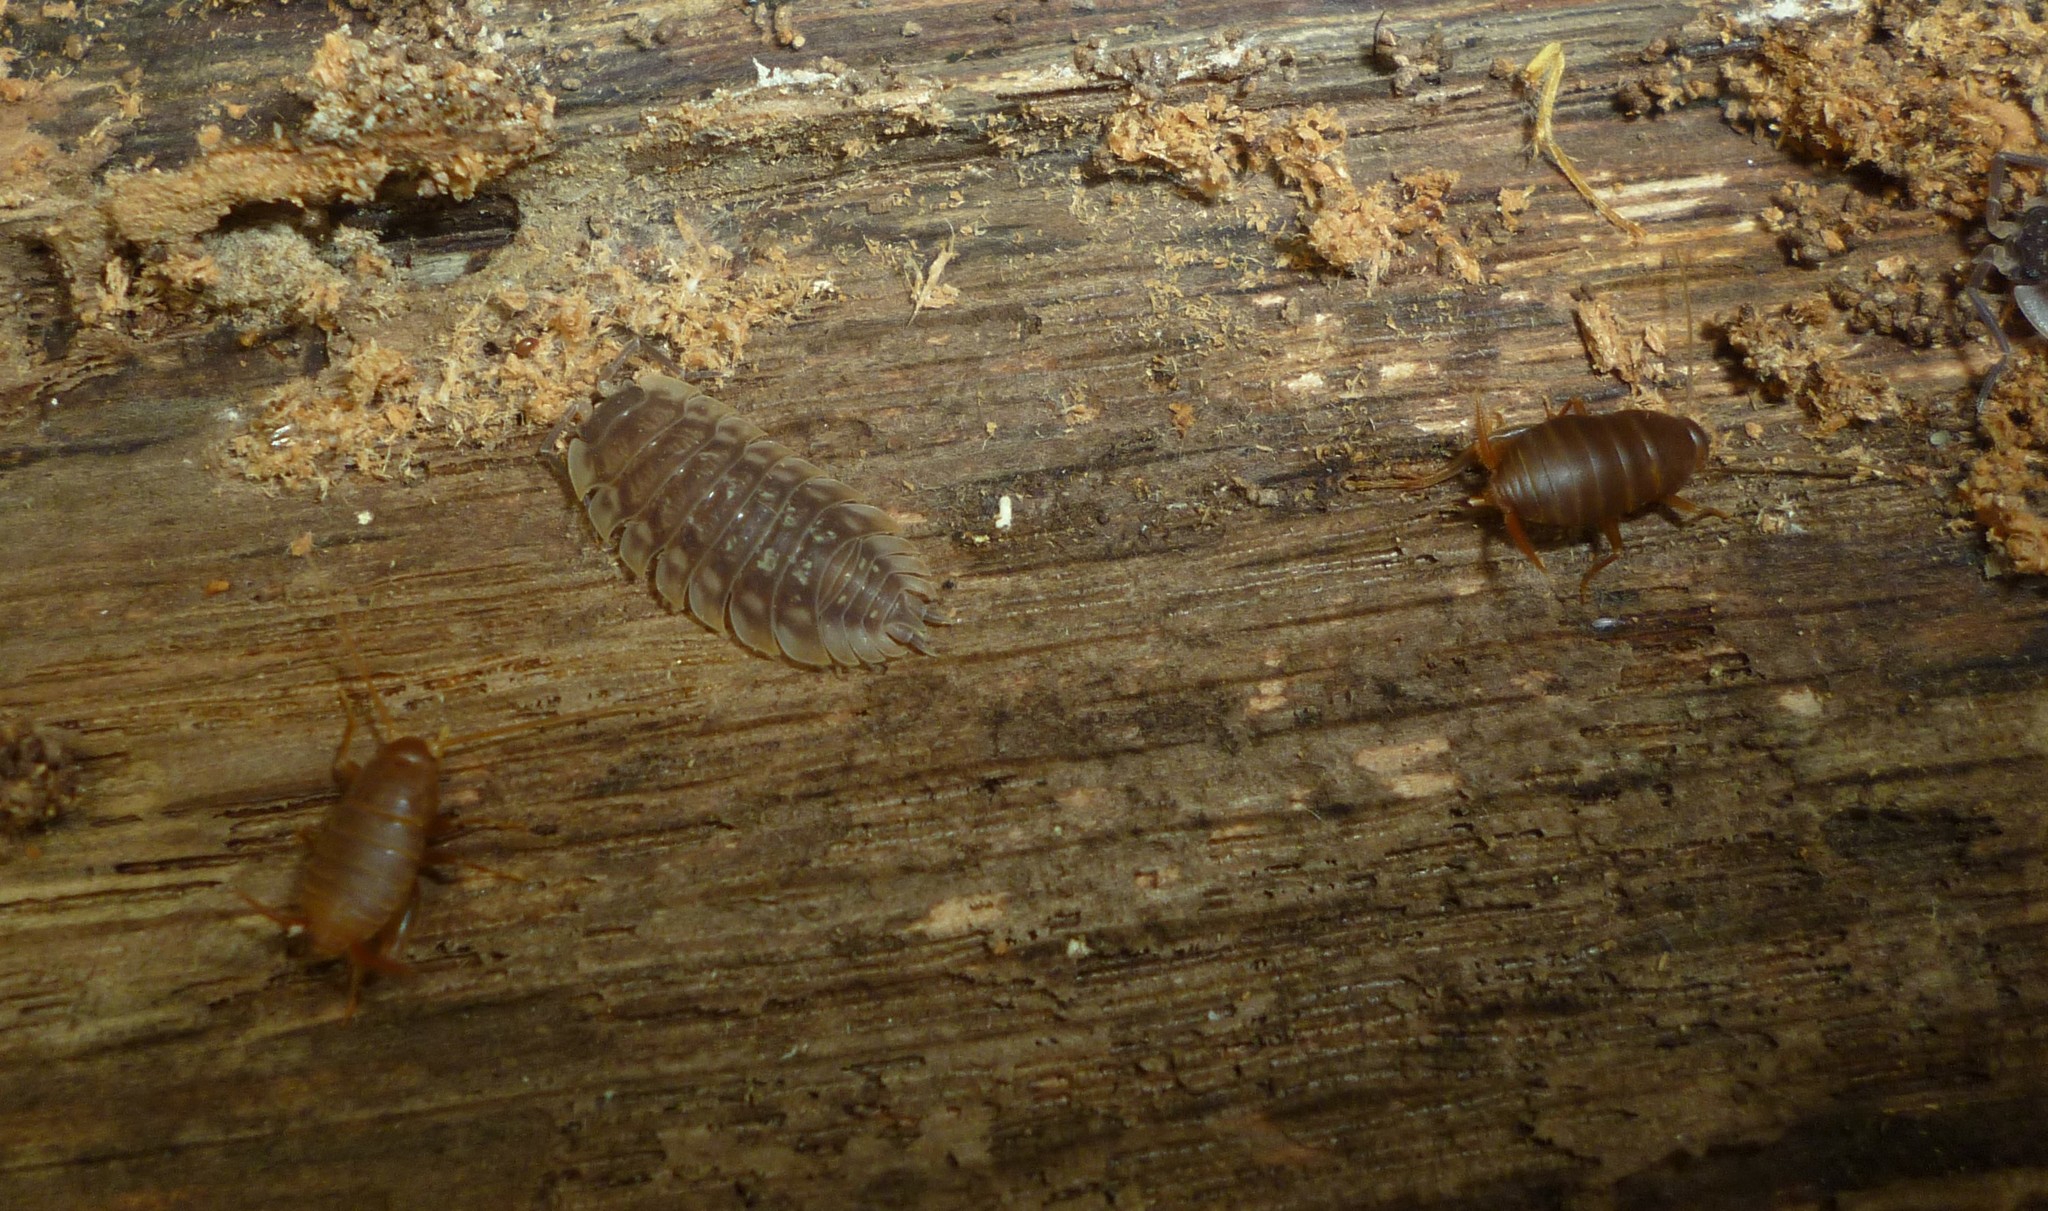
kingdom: Animalia
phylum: Arthropoda
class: Insecta
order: Orthoptera
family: Myrmecophilidae
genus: Myrmecophilus
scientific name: Myrmecophilus pergandei
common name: Eastern ant cricket
